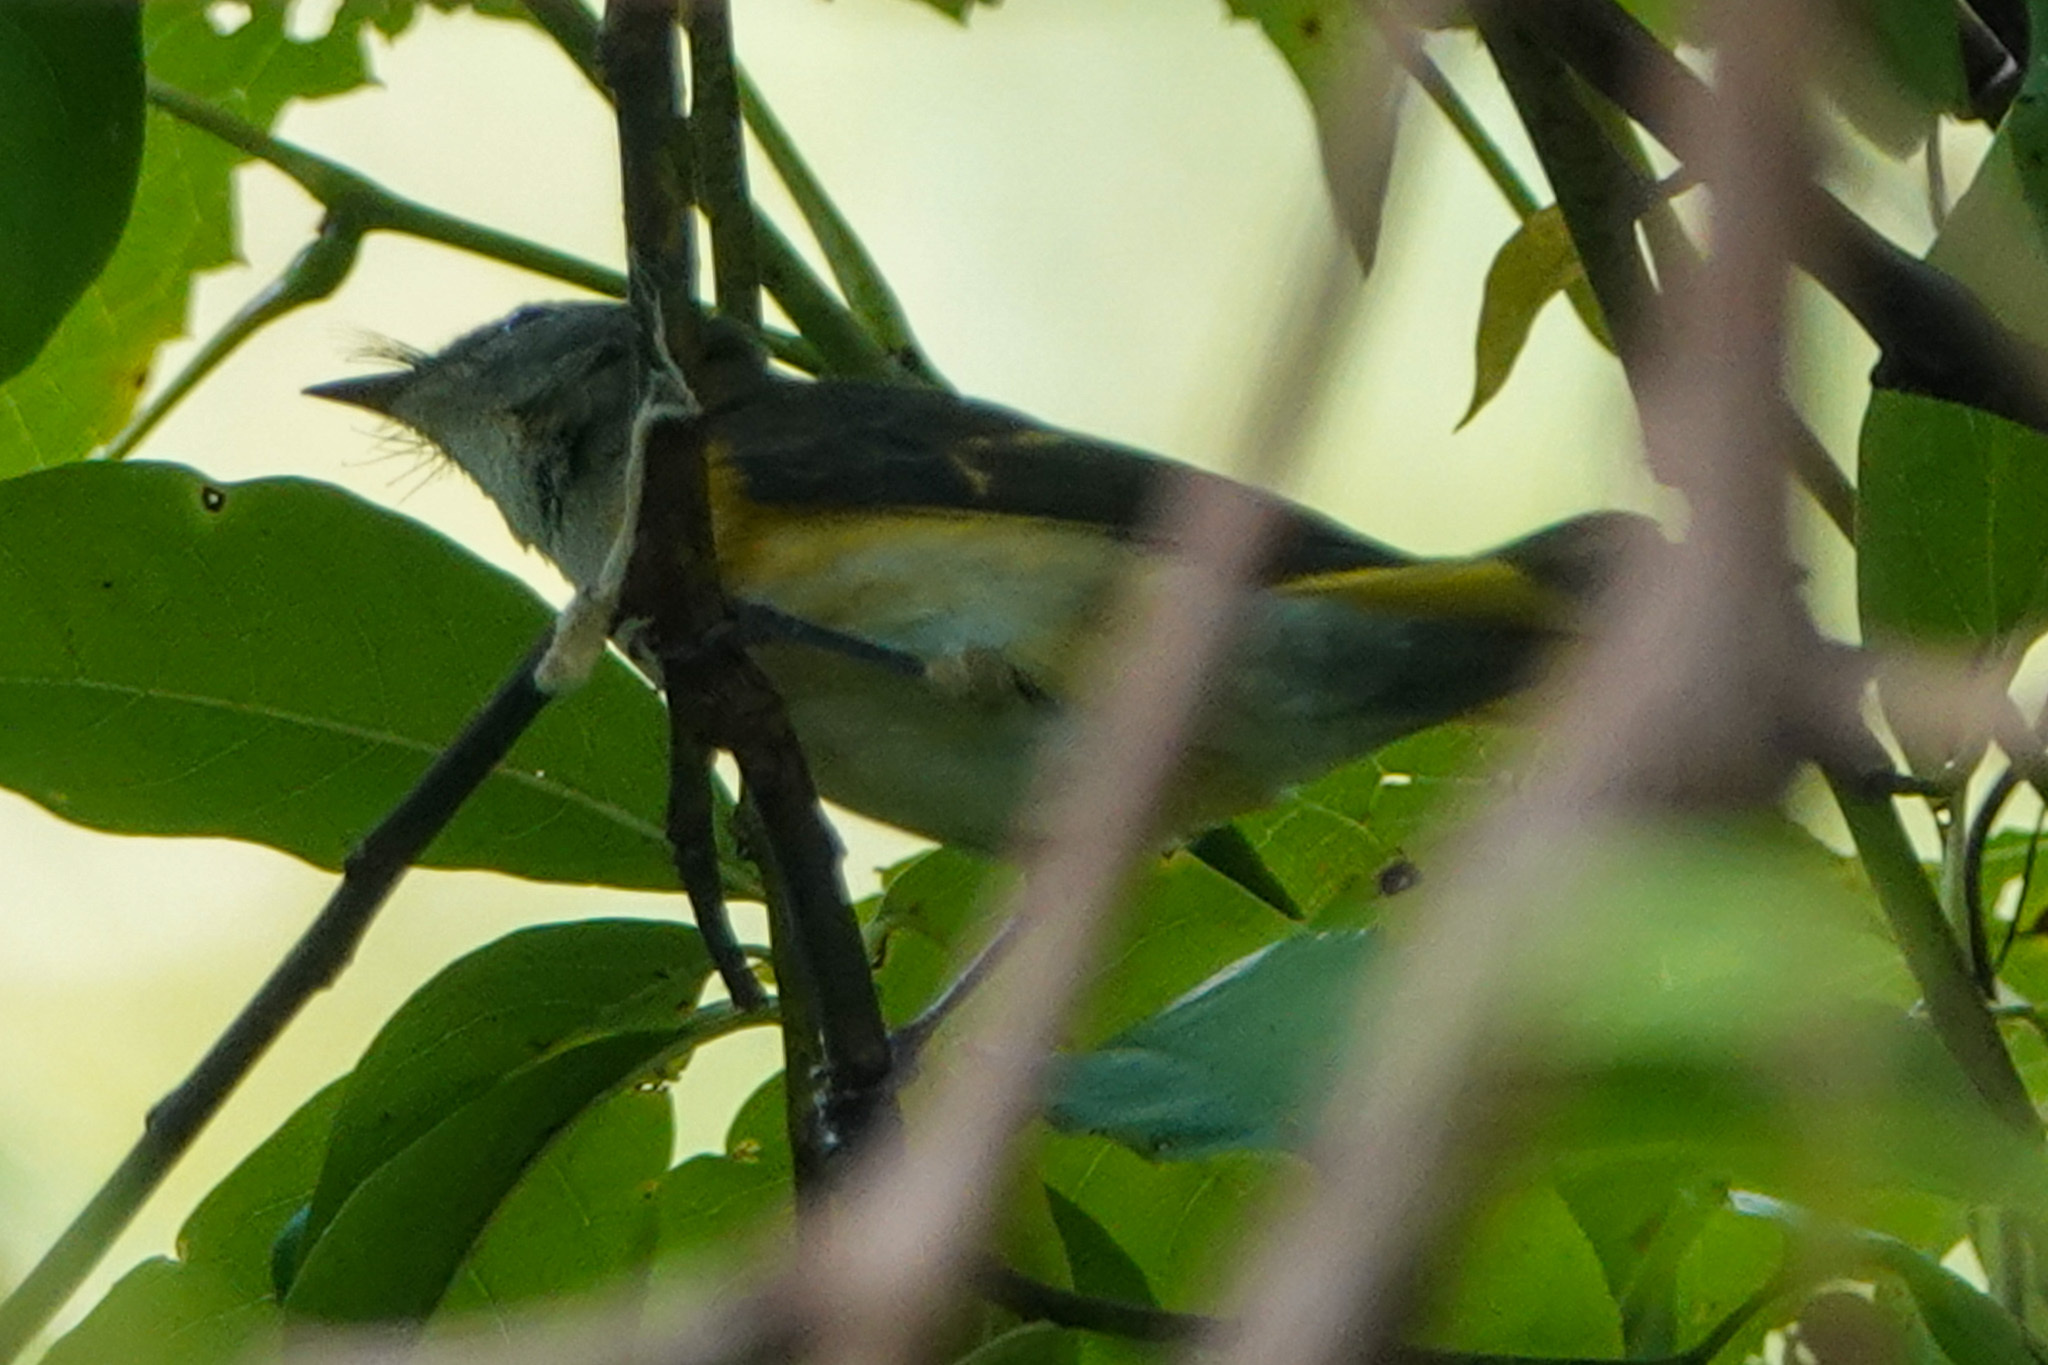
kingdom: Animalia
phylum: Chordata
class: Aves
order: Passeriformes
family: Parulidae
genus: Setophaga
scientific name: Setophaga ruticilla
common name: American redstart
